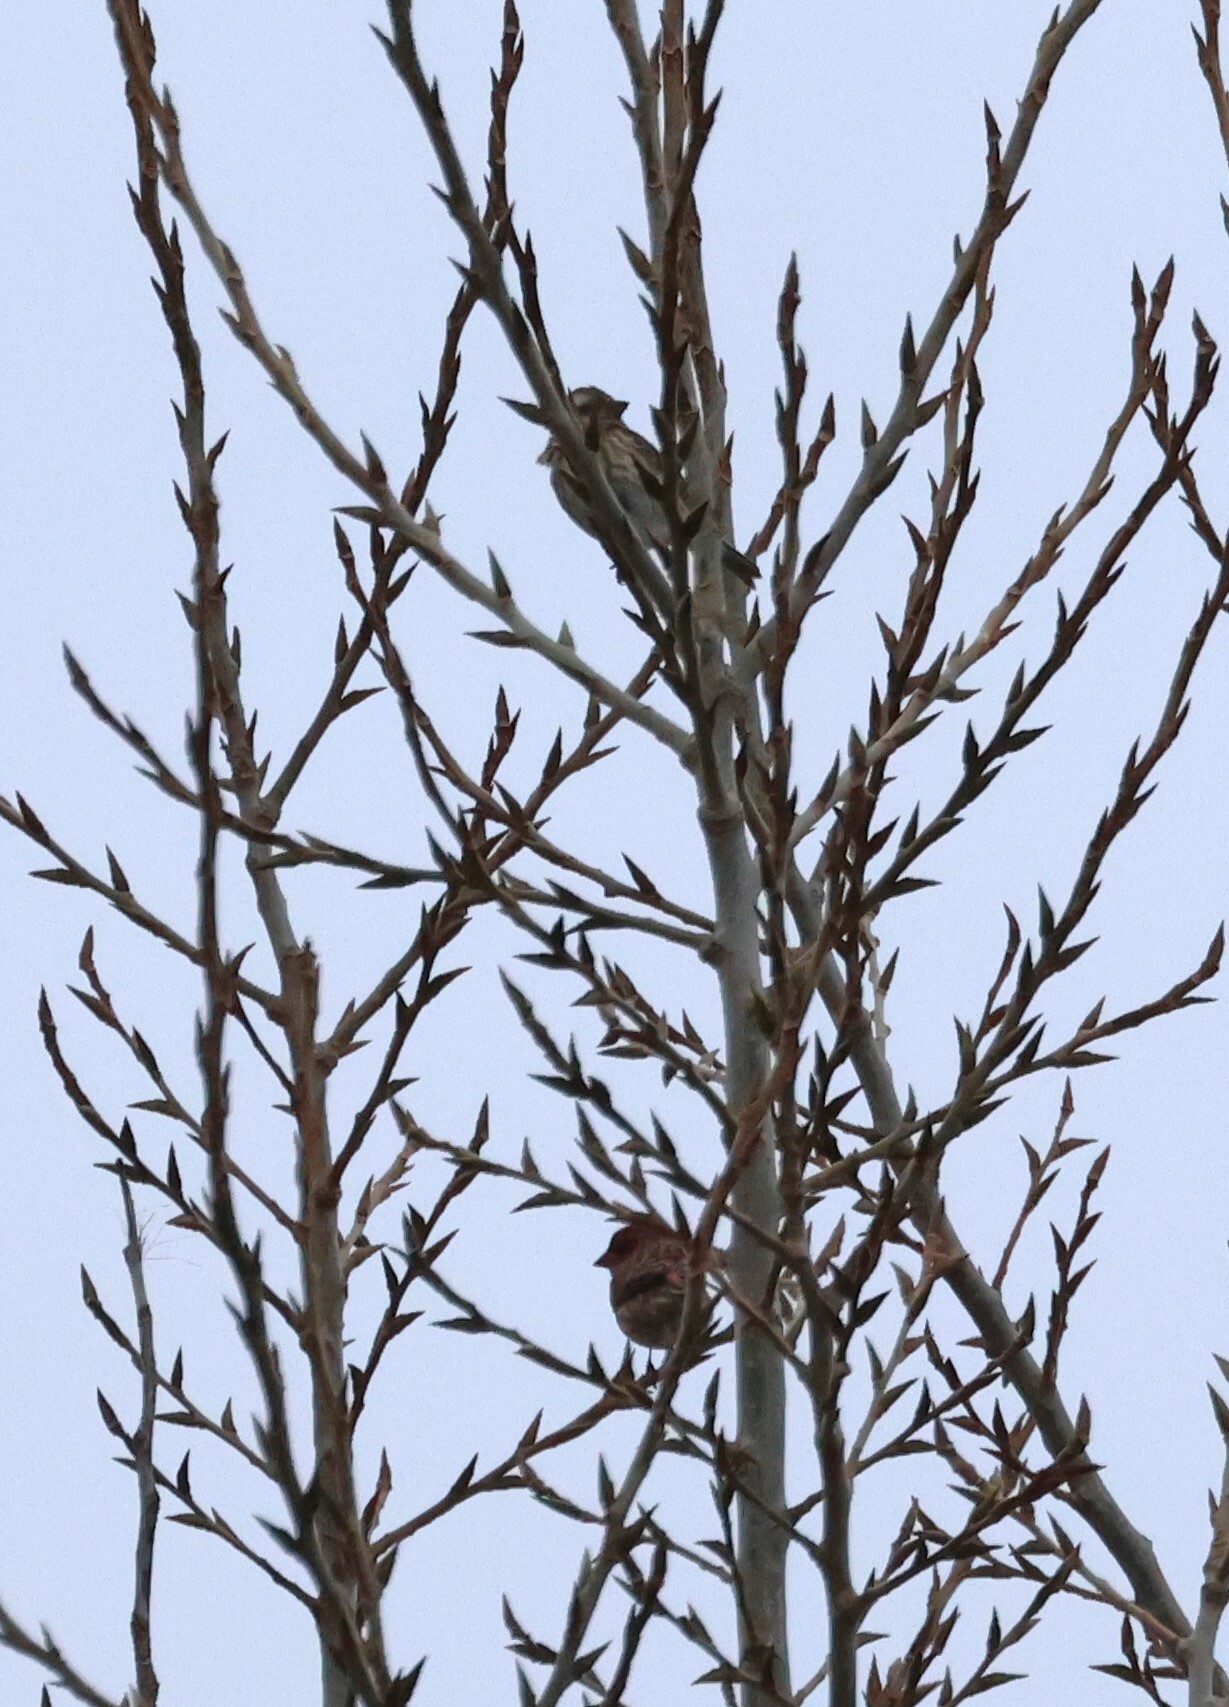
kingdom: Animalia
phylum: Chordata
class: Aves
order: Passeriformes
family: Fringillidae
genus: Haemorhous
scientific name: Haemorhous purpureus
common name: Purple finch
